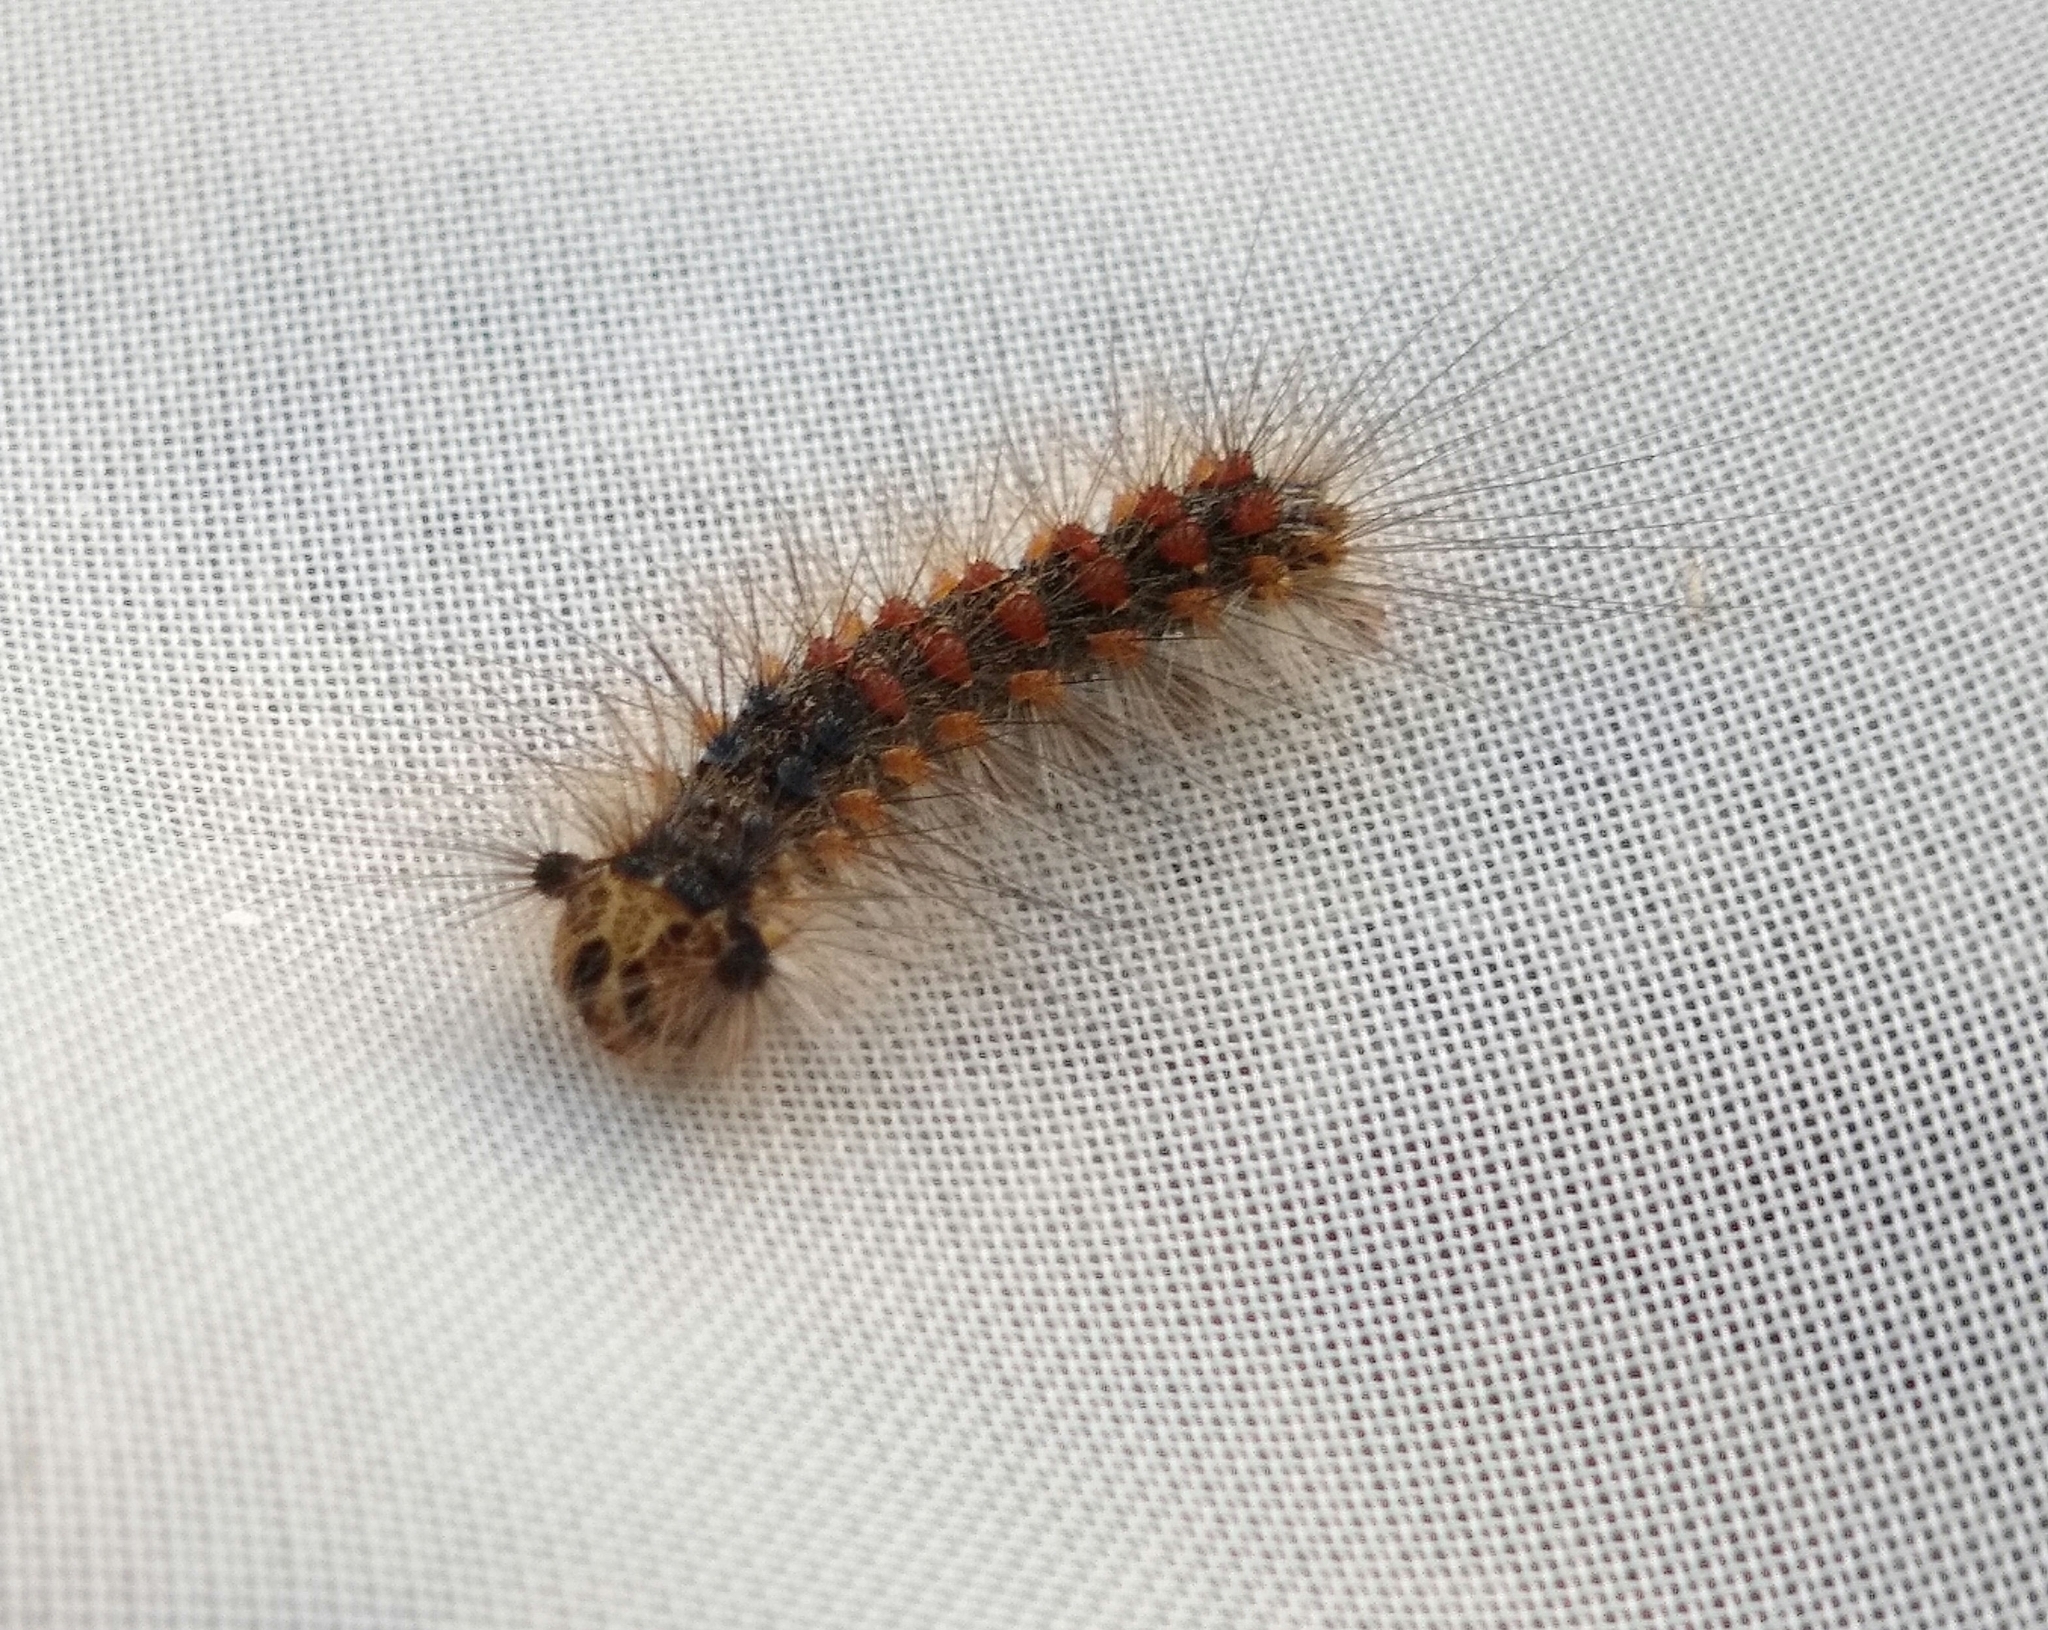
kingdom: Animalia
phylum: Arthropoda
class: Insecta
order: Lepidoptera
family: Erebidae
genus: Lymantria
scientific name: Lymantria dispar
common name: Gypsy moth
